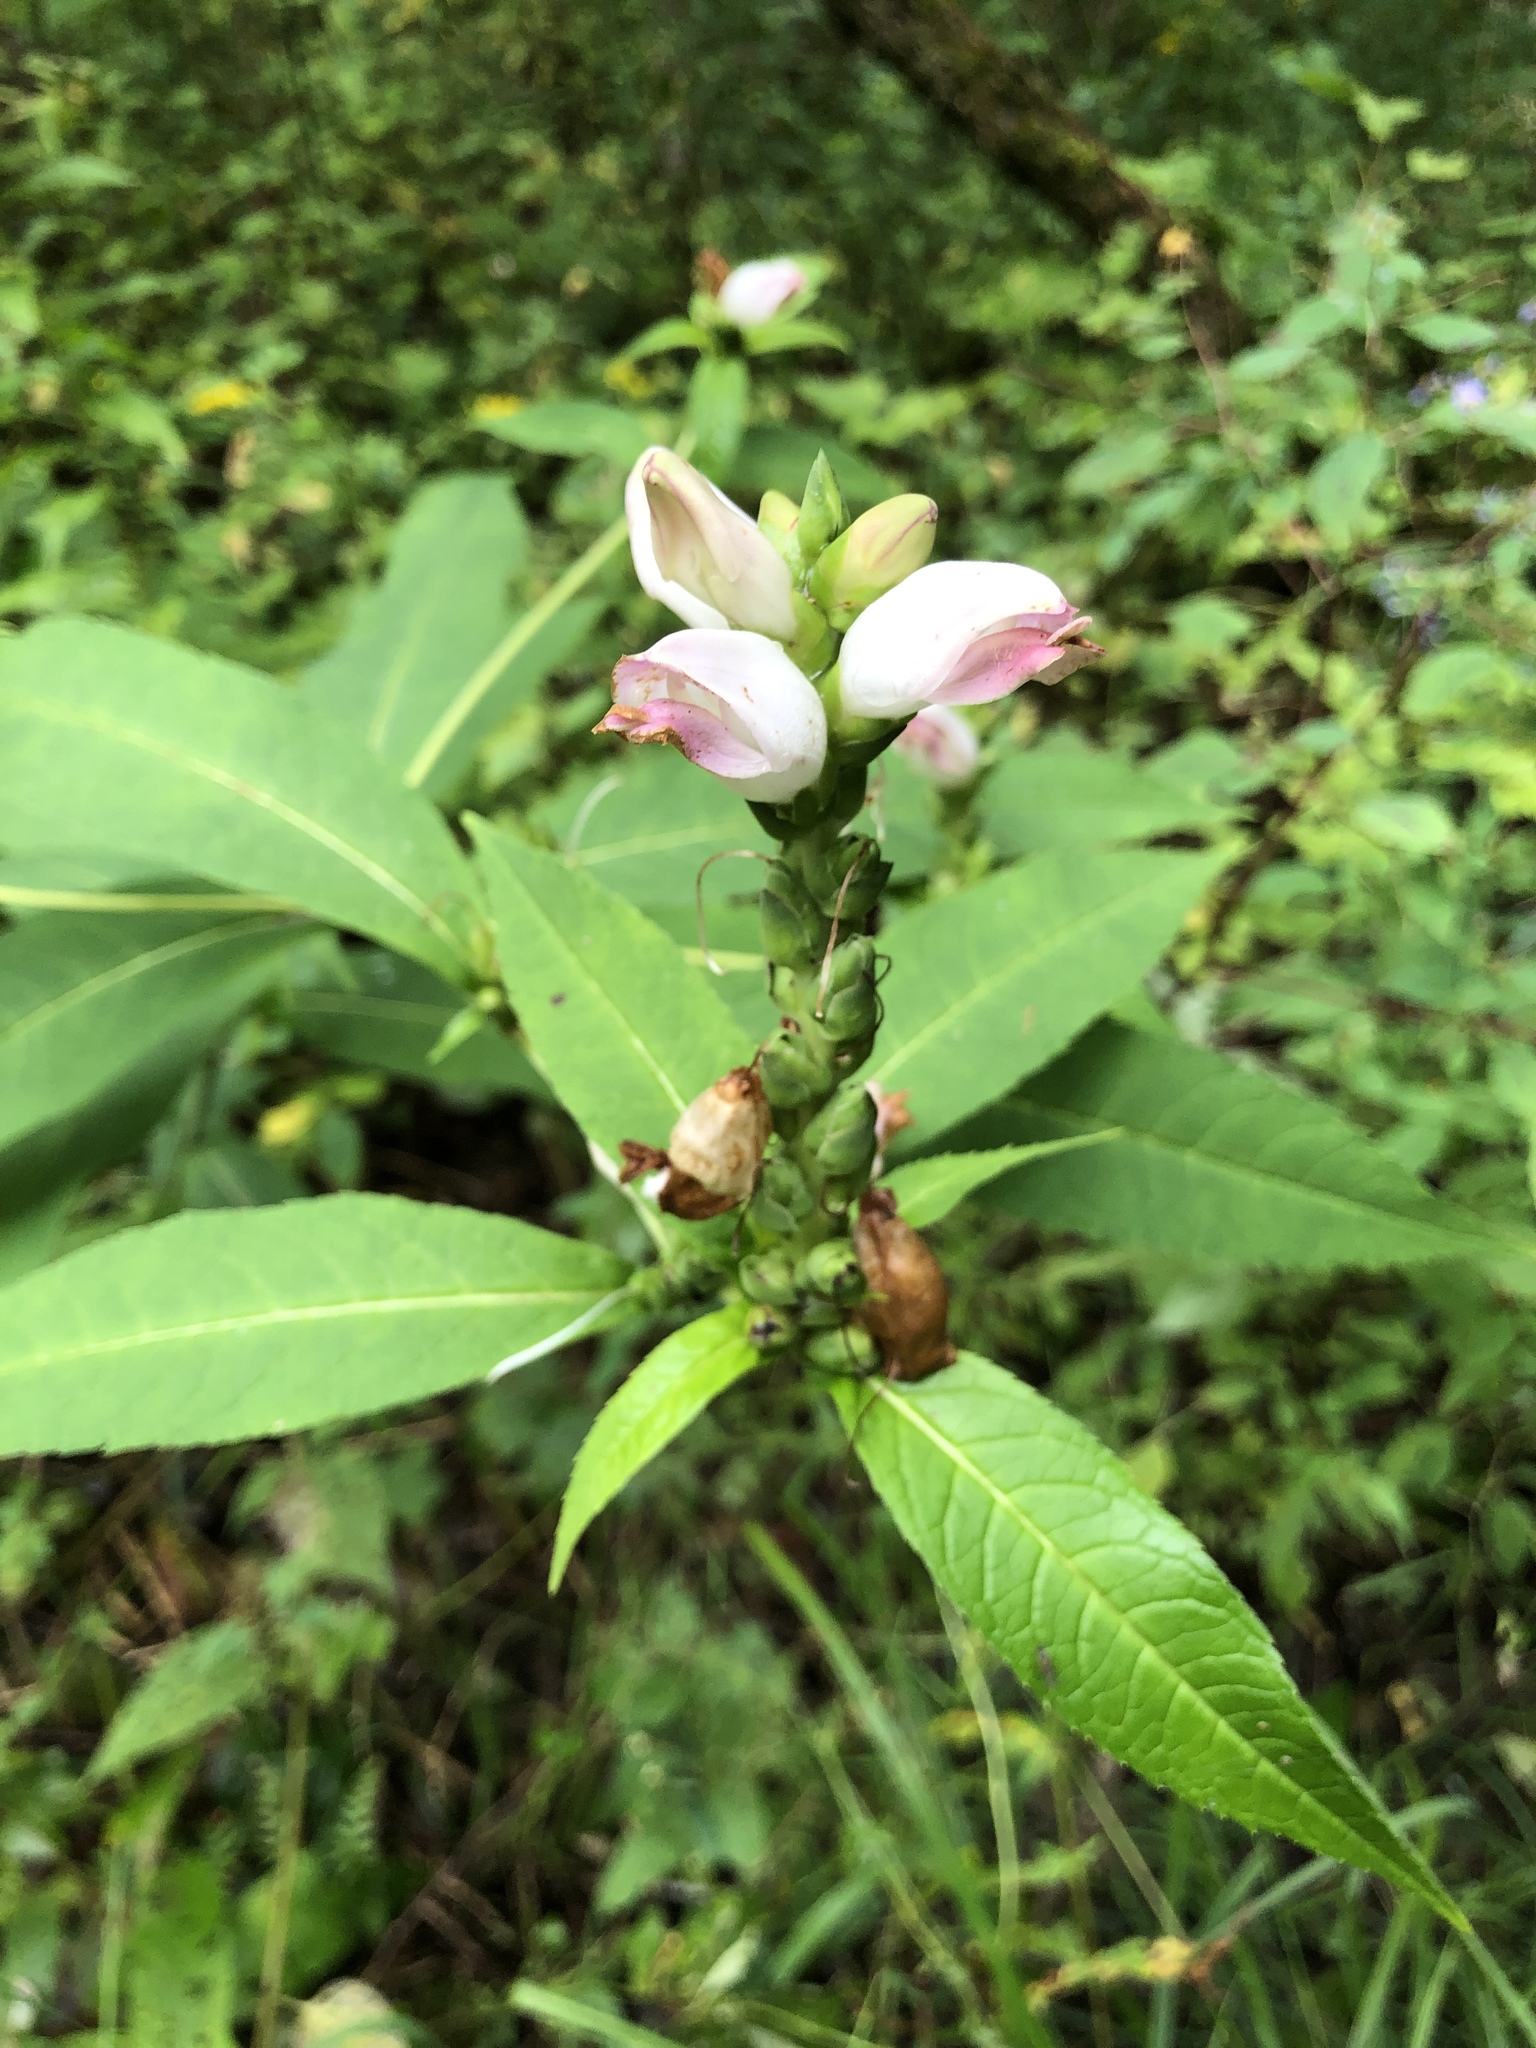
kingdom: Plantae
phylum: Tracheophyta
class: Magnoliopsida
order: Lamiales
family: Plantaginaceae
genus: Chelone
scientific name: Chelone glabra
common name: Snakehead
